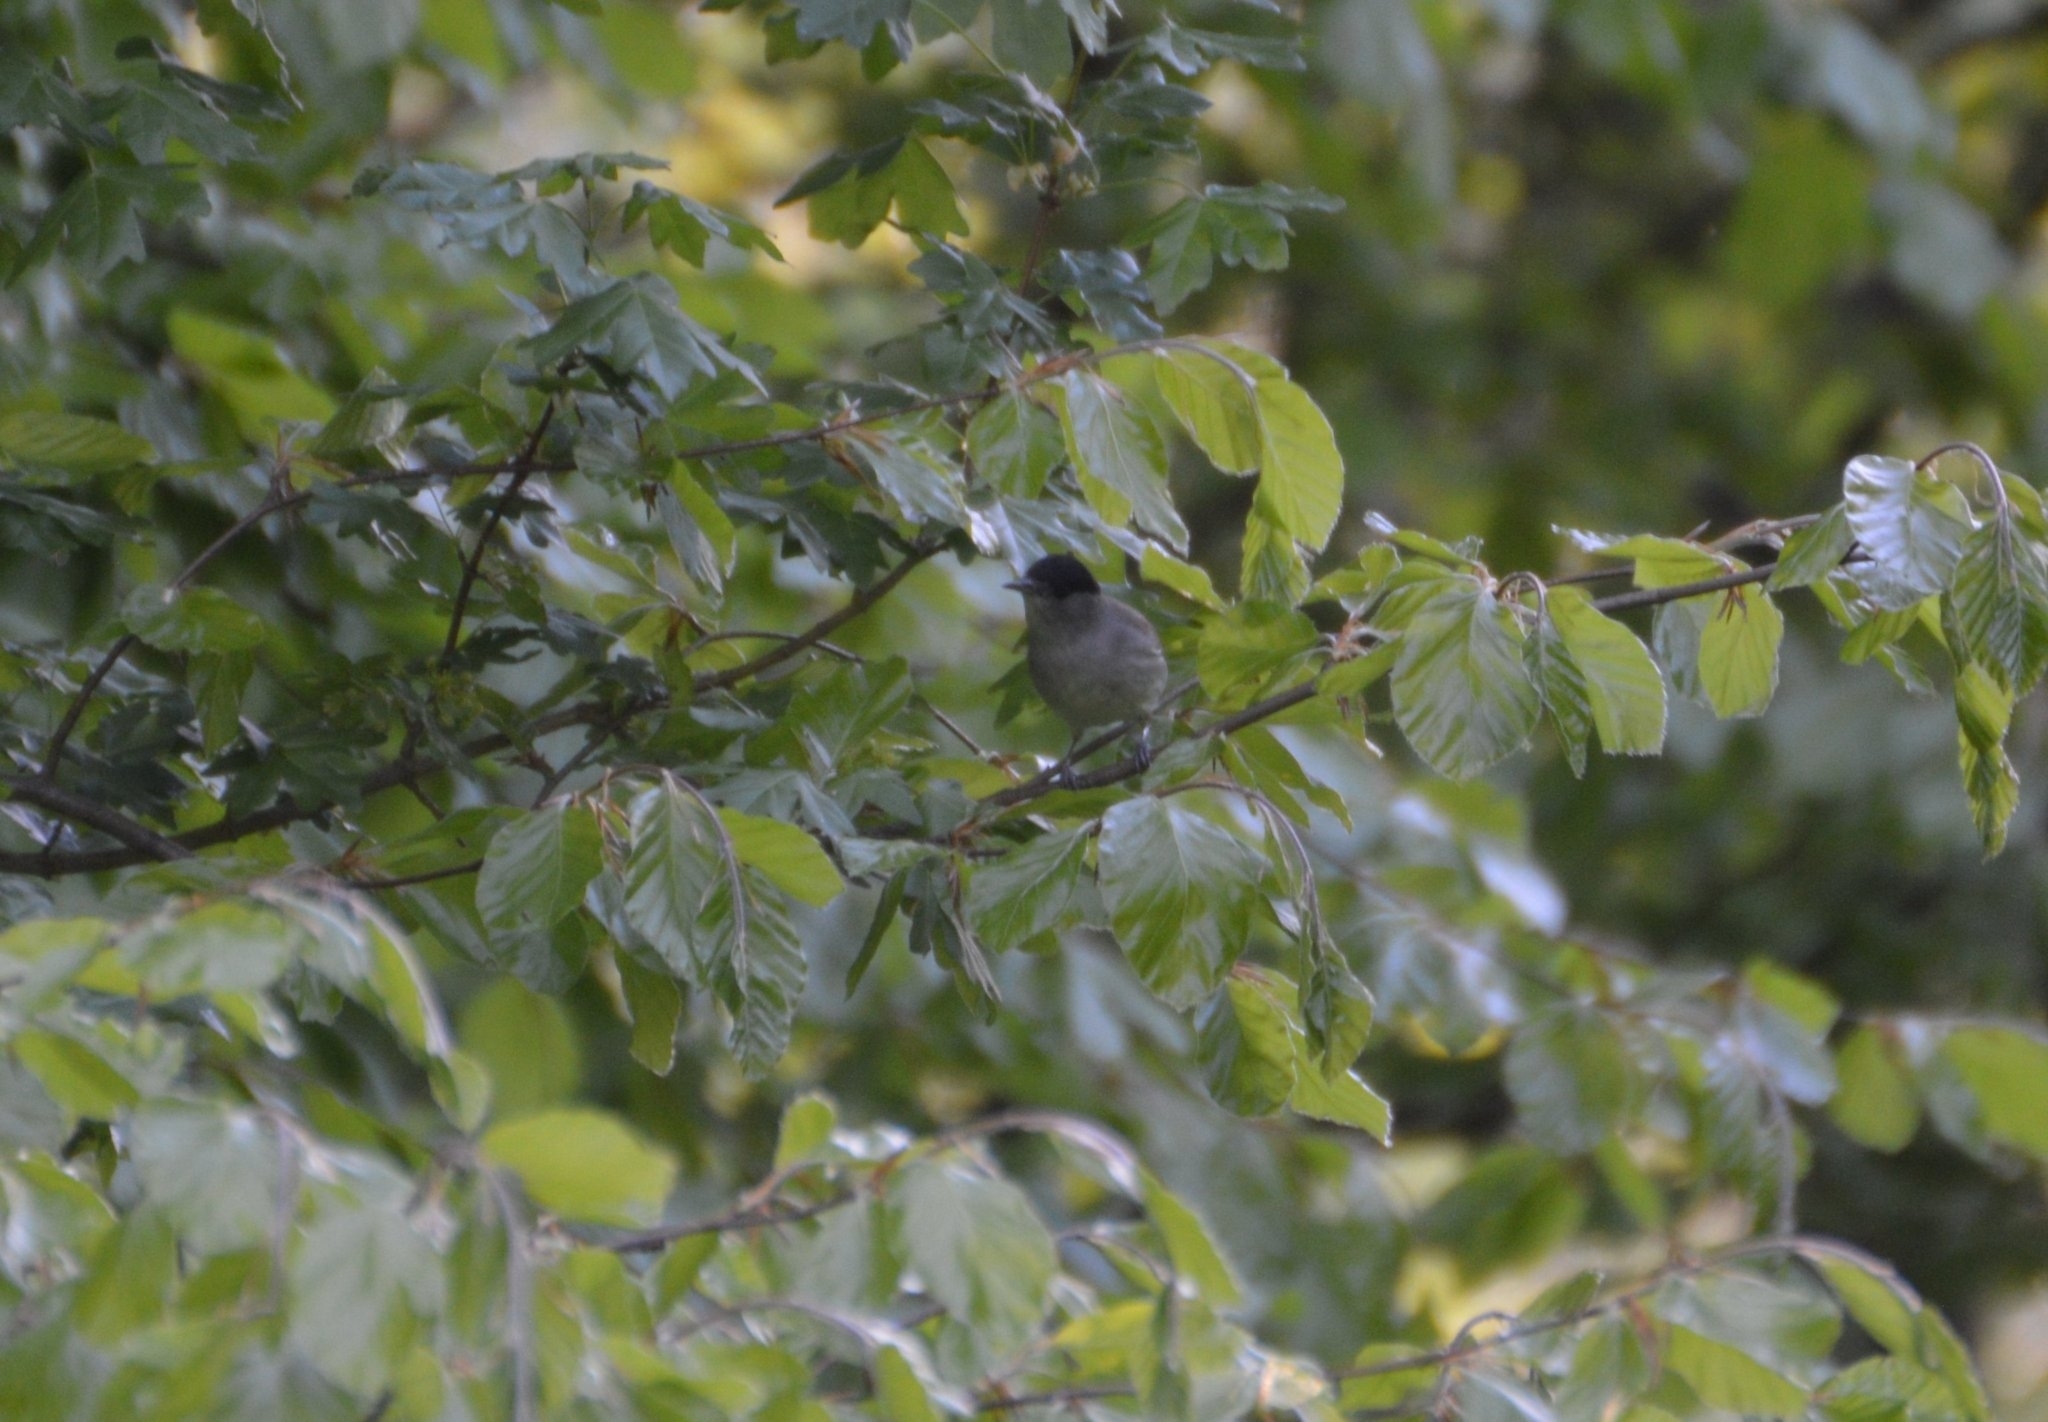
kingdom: Animalia
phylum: Chordata
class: Aves
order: Passeriformes
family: Sylviidae
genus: Sylvia
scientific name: Sylvia atricapilla
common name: Eurasian blackcap
